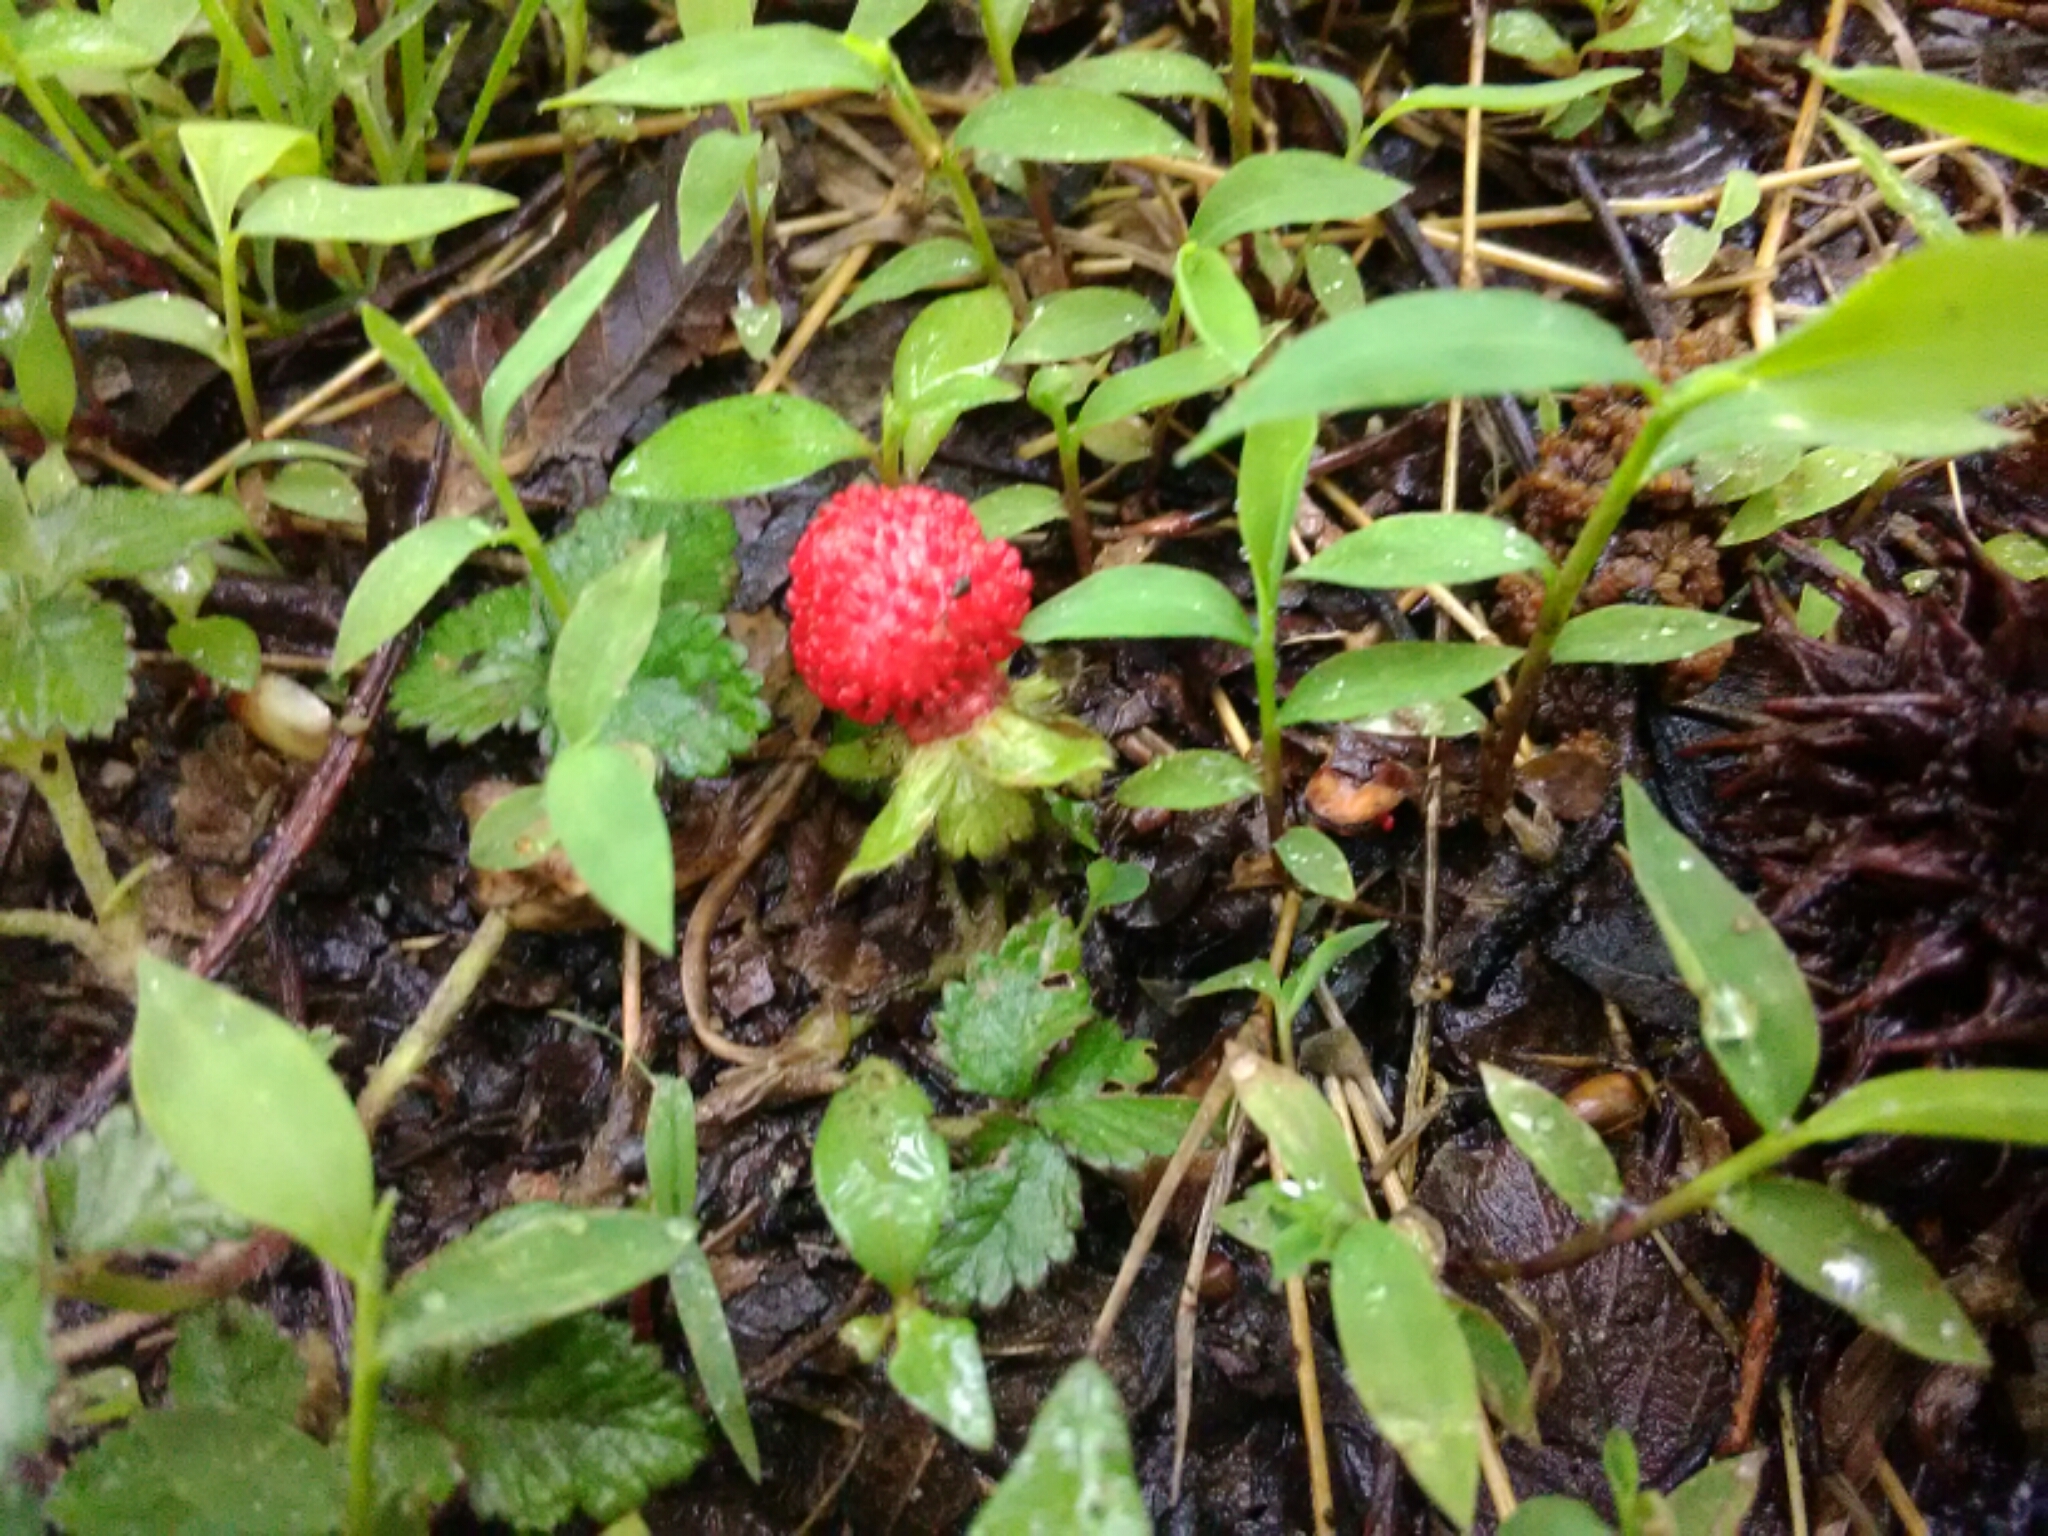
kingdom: Plantae
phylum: Tracheophyta
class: Magnoliopsida
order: Rosales
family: Rosaceae
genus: Potentilla
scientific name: Potentilla indica
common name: Yellow-flowered strawberry
